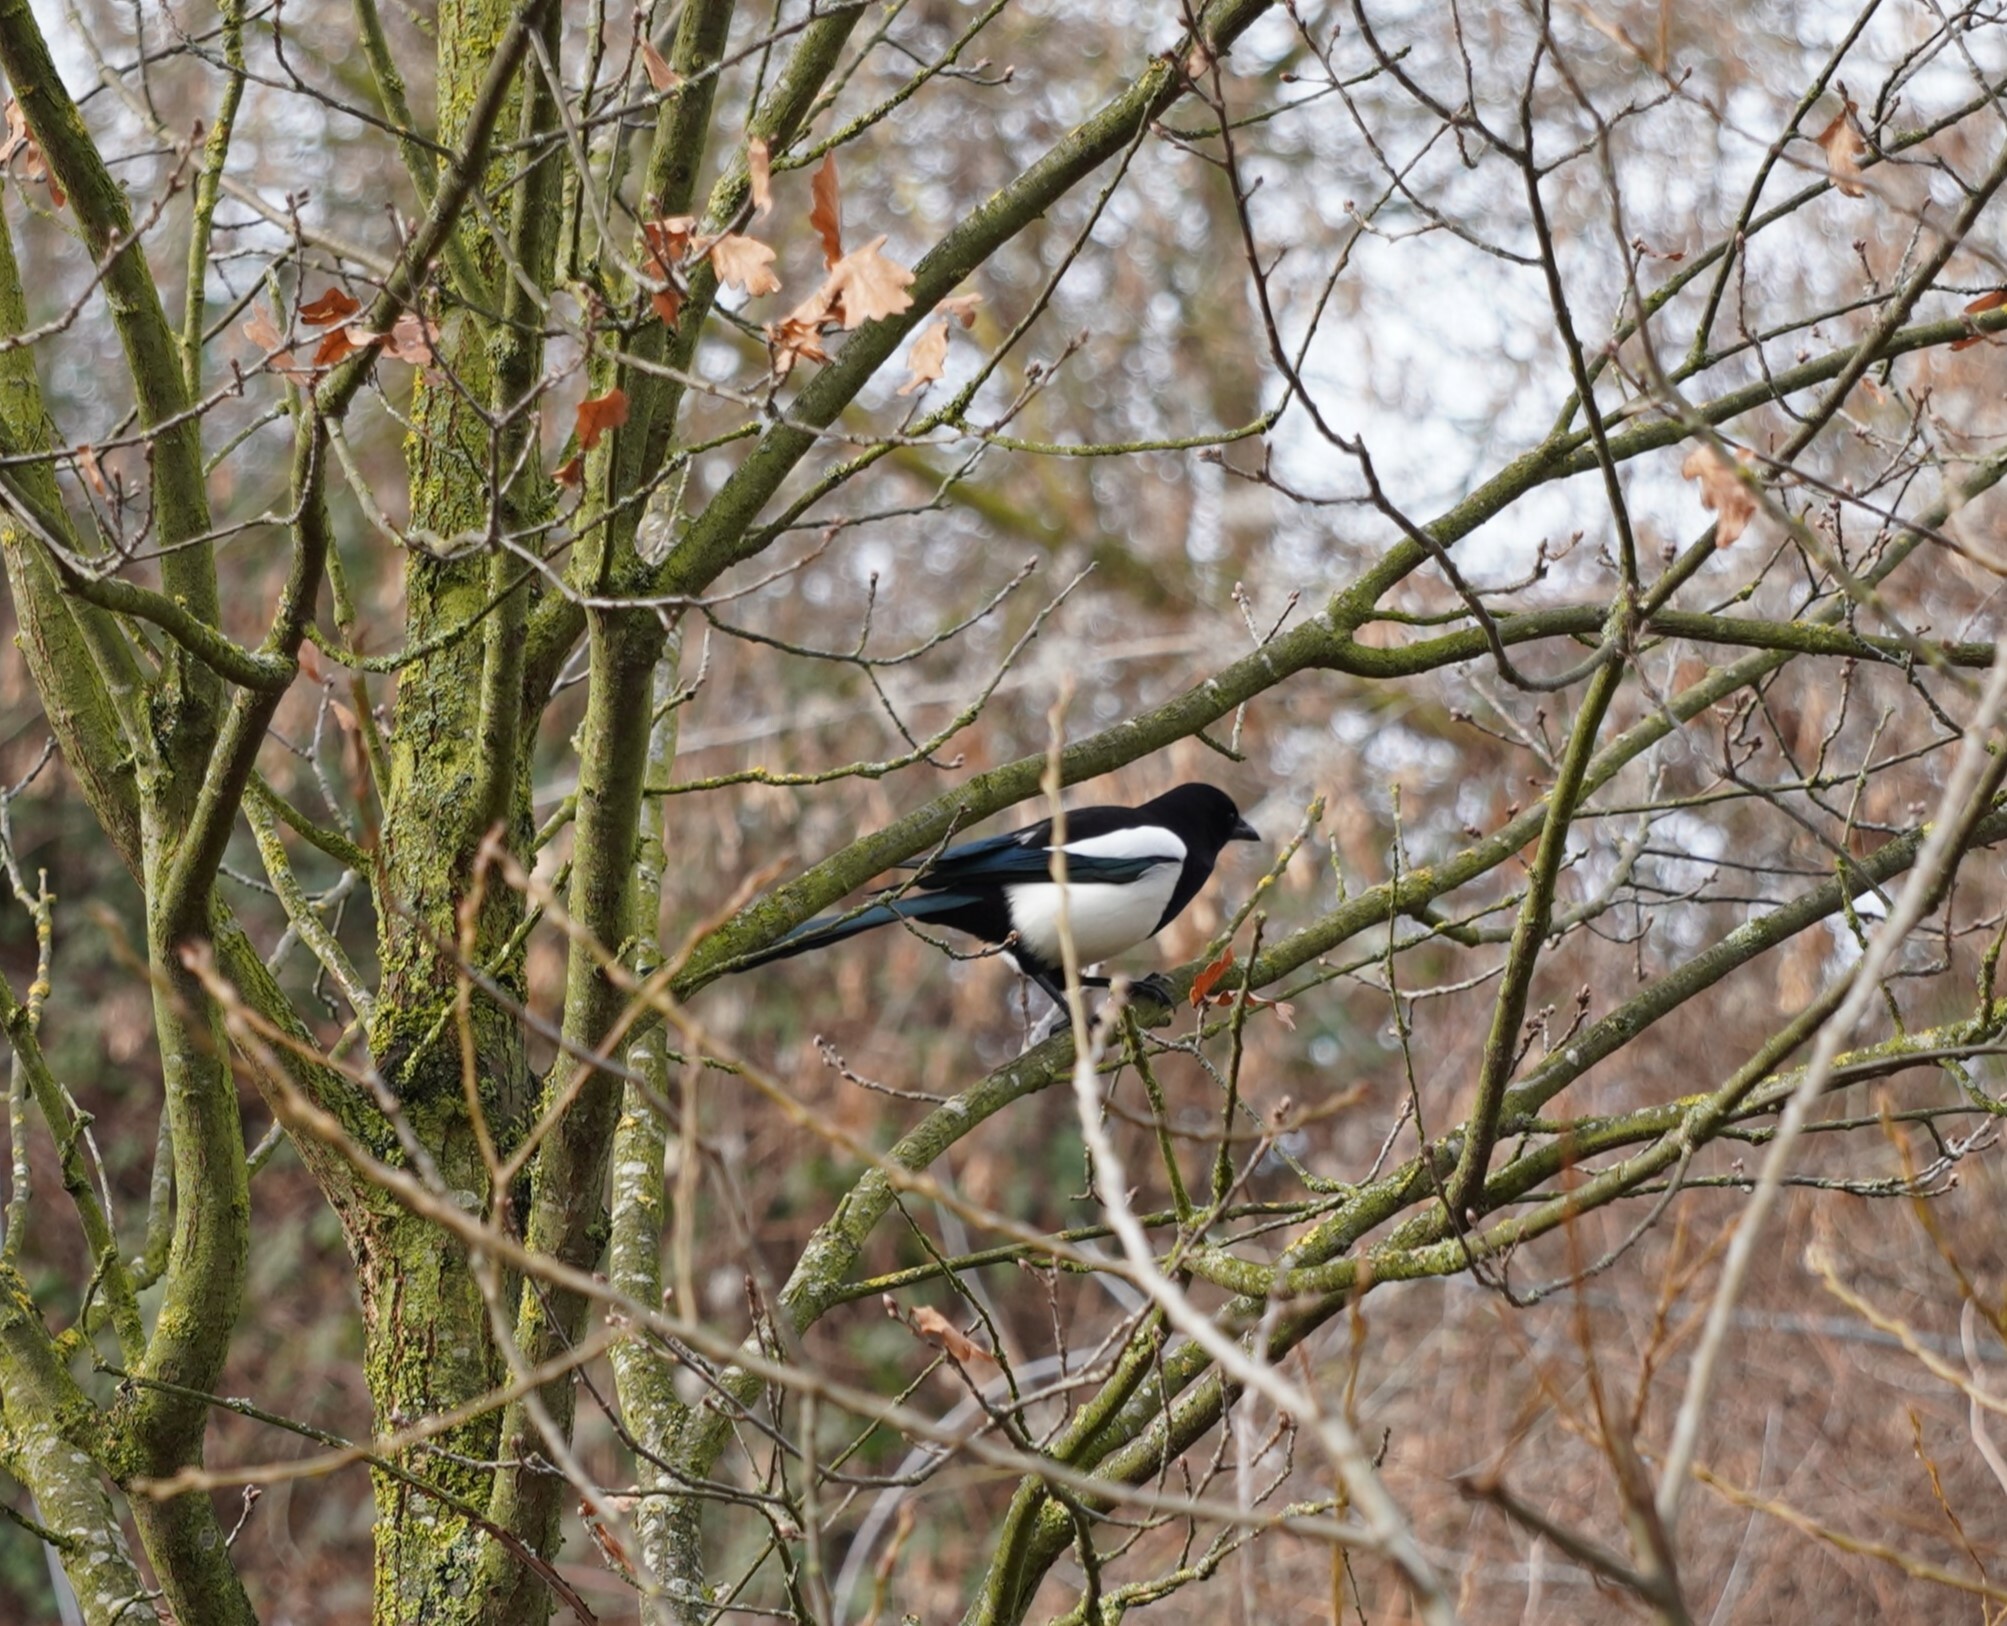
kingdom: Animalia
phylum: Chordata
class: Aves
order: Passeriformes
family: Corvidae
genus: Pica
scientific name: Pica pica
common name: Eurasian magpie
